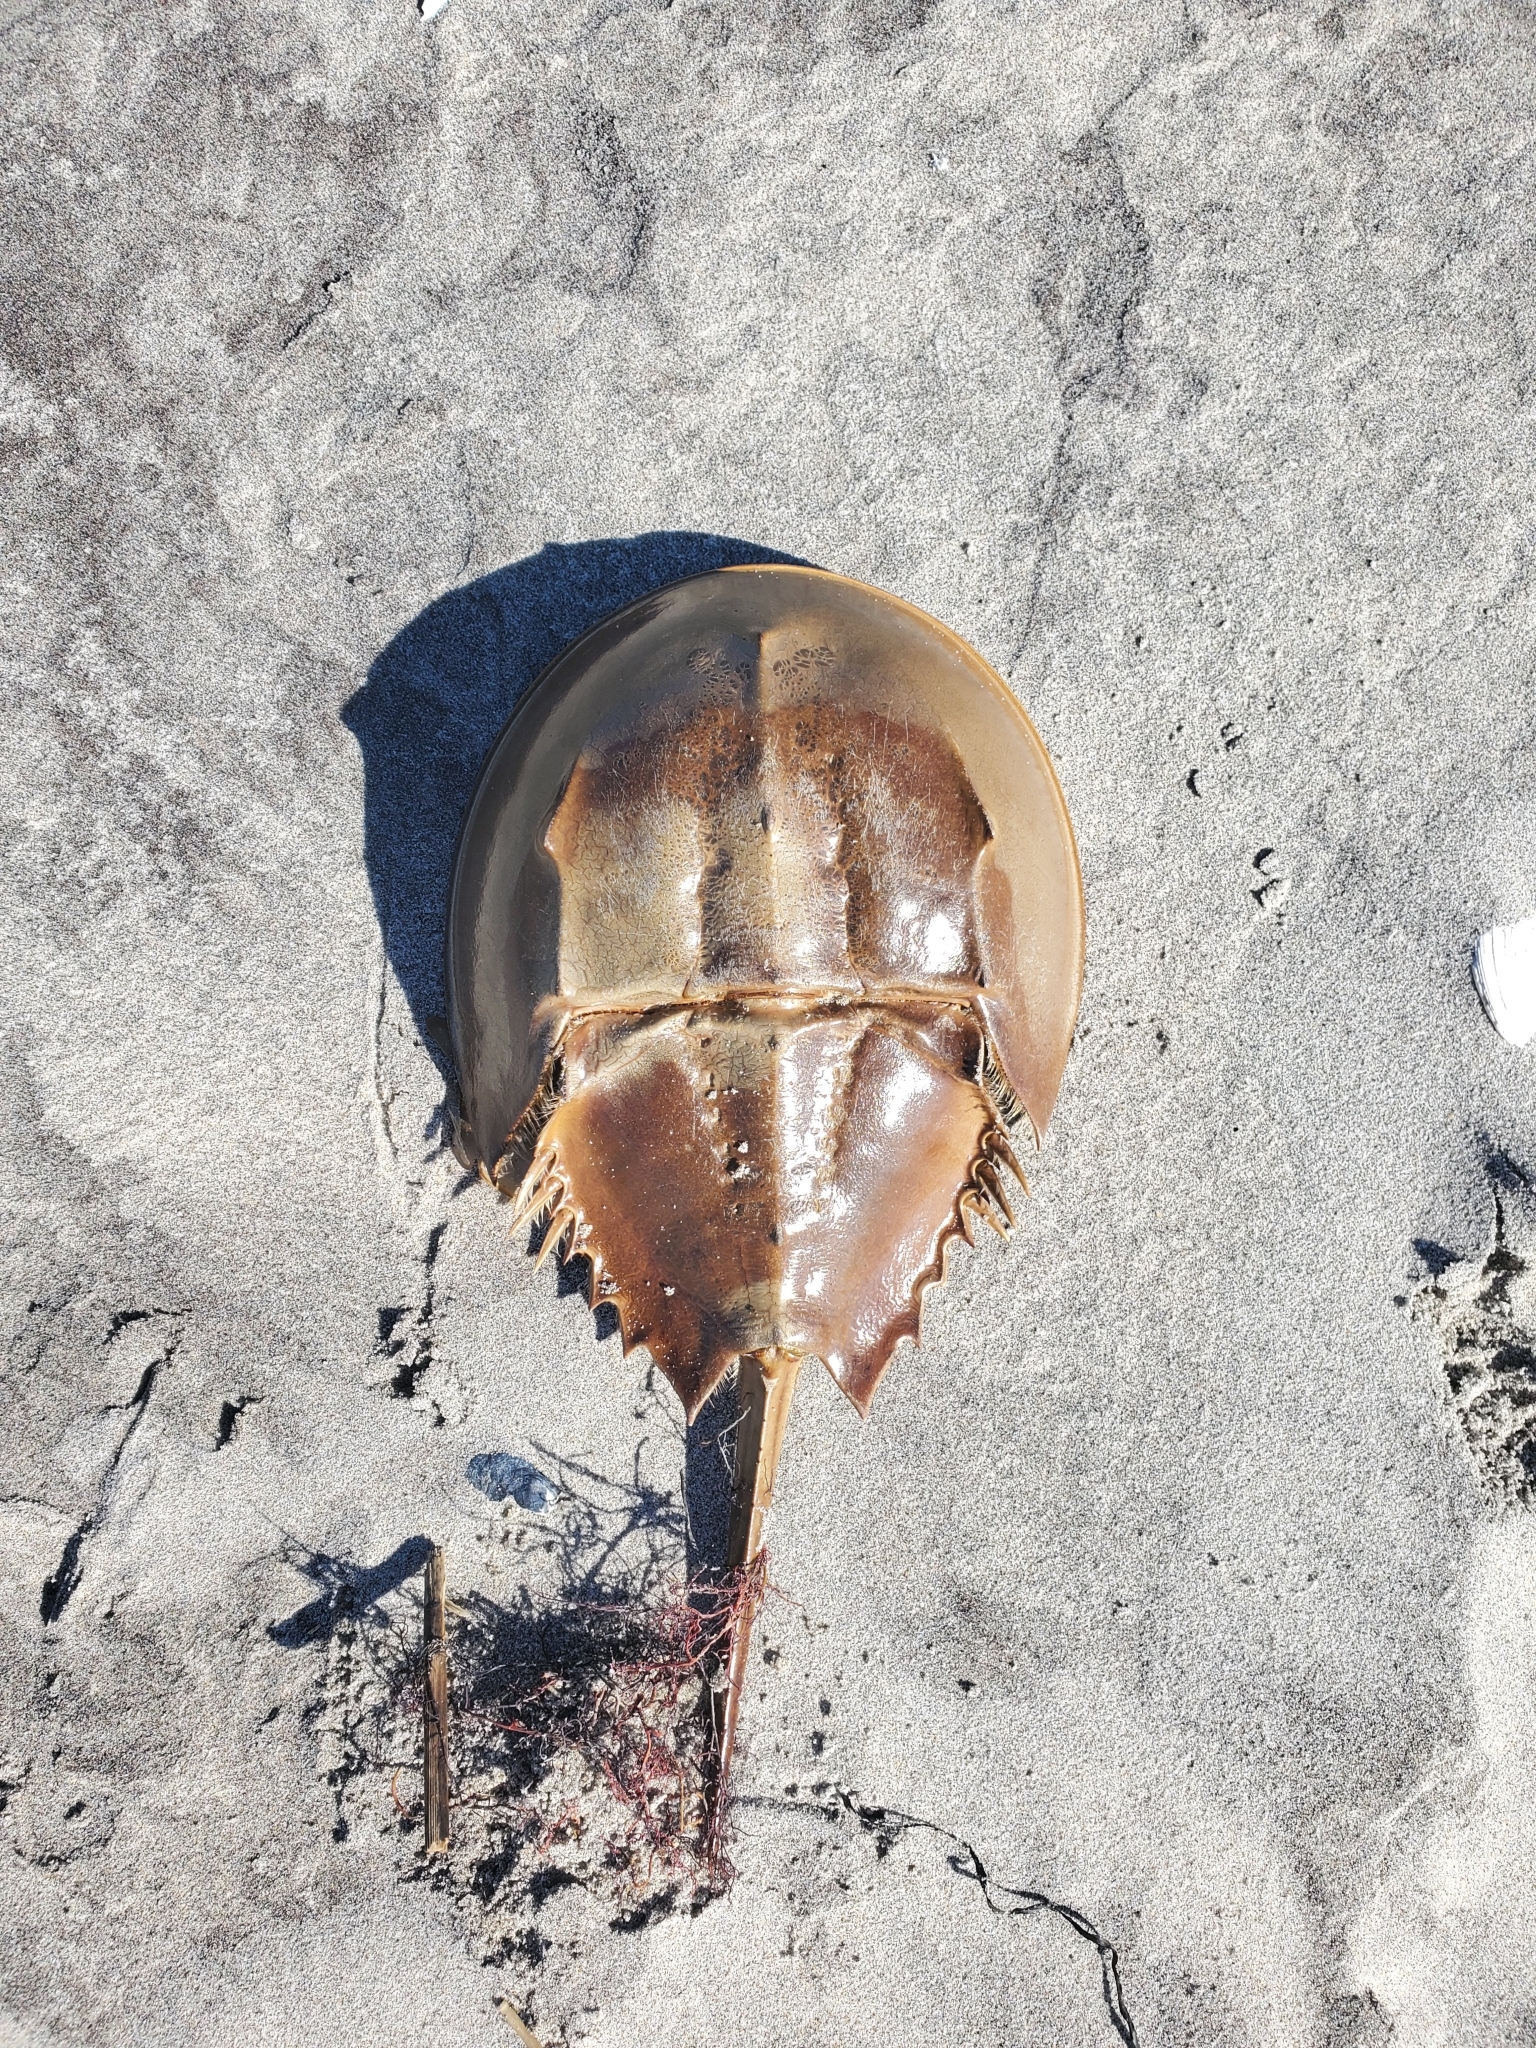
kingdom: Animalia
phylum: Arthropoda
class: Merostomata
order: Xiphosurida
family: Limulidae
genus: Limulus
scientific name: Limulus polyphemus
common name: Horseshoe crab
